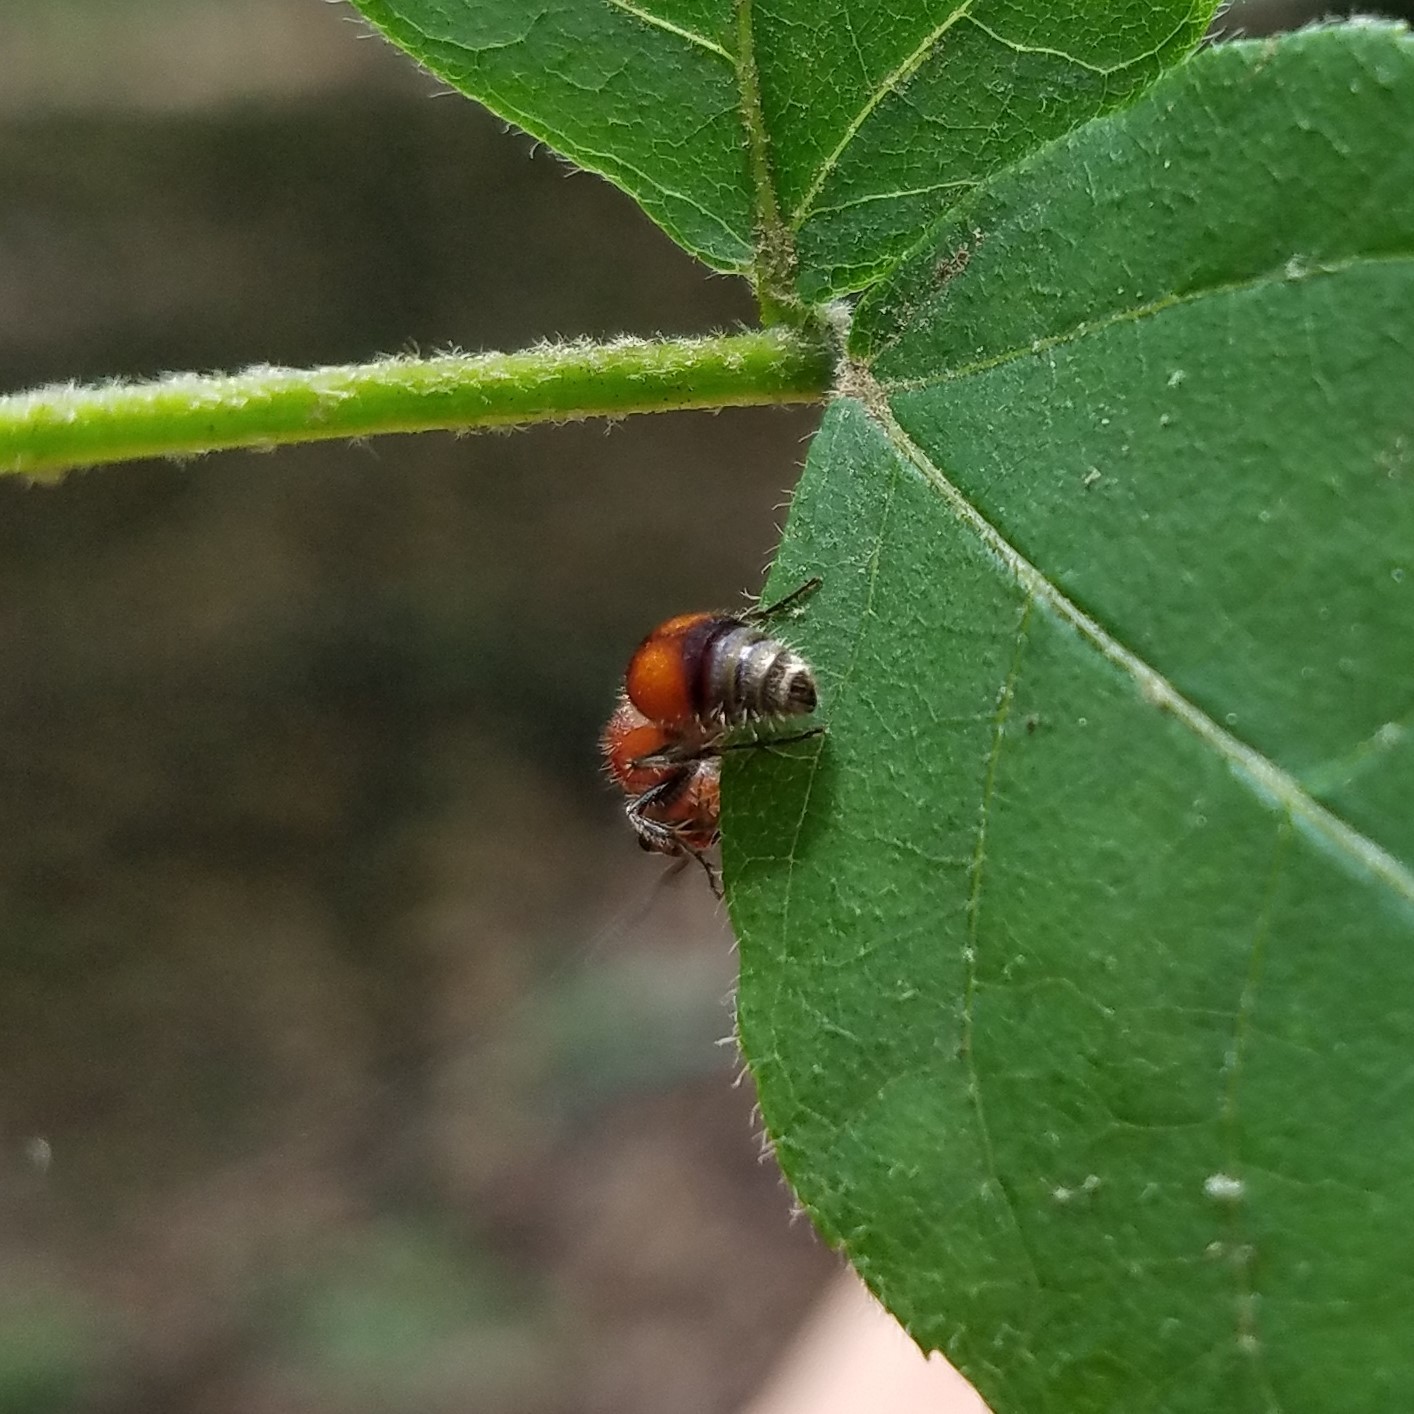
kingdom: Animalia
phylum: Arthropoda
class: Insecta
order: Hymenoptera
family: Mutillidae
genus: Pseudomethoca
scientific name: Pseudomethoca
